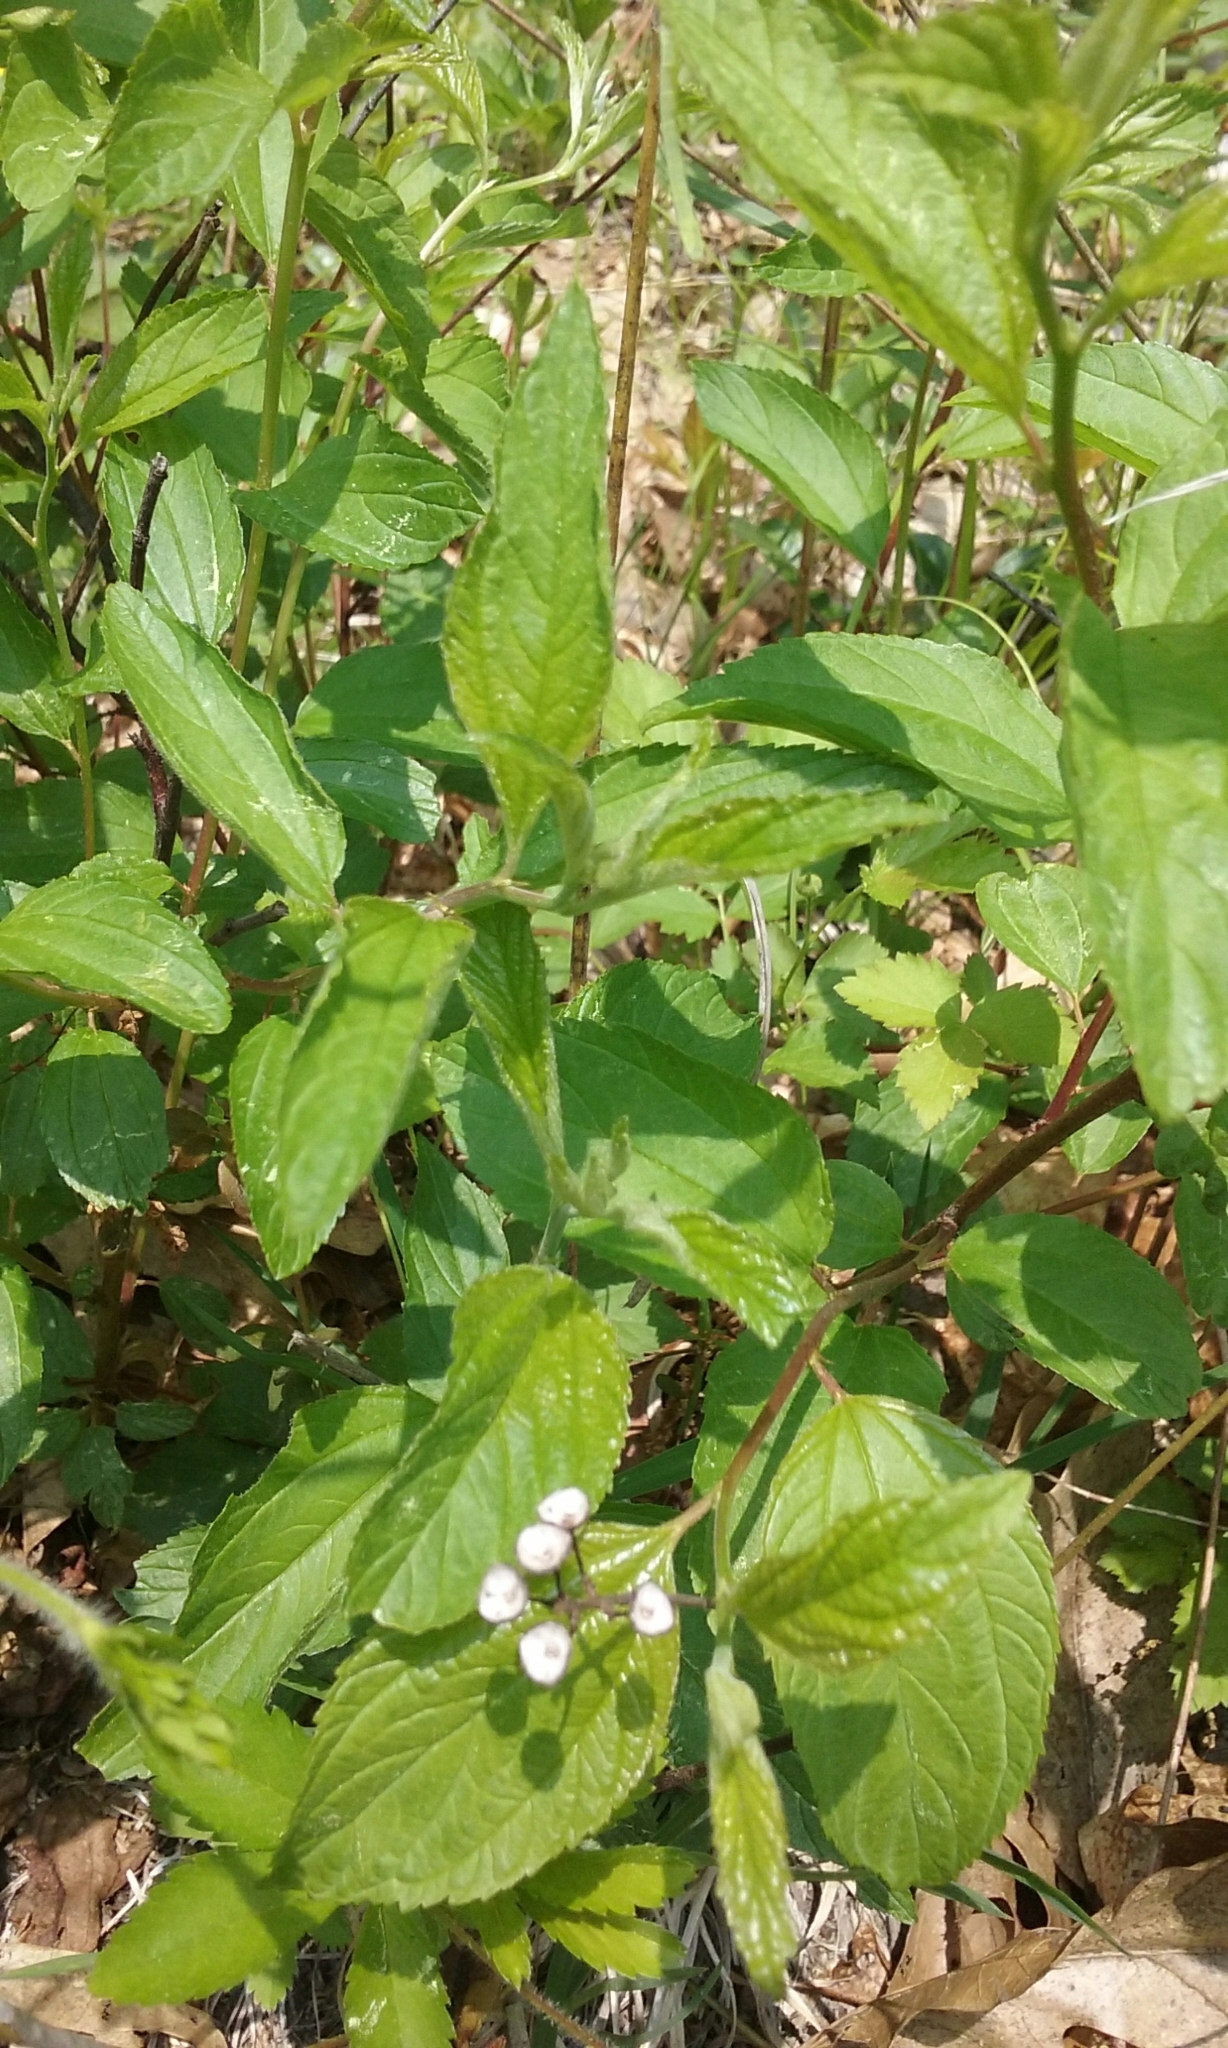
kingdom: Plantae
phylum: Tracheophyta
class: Magnoliopsida
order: Rosales
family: Rhamnaceae
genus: Ceanothus
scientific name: Ceanothus americanus
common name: Redroot
